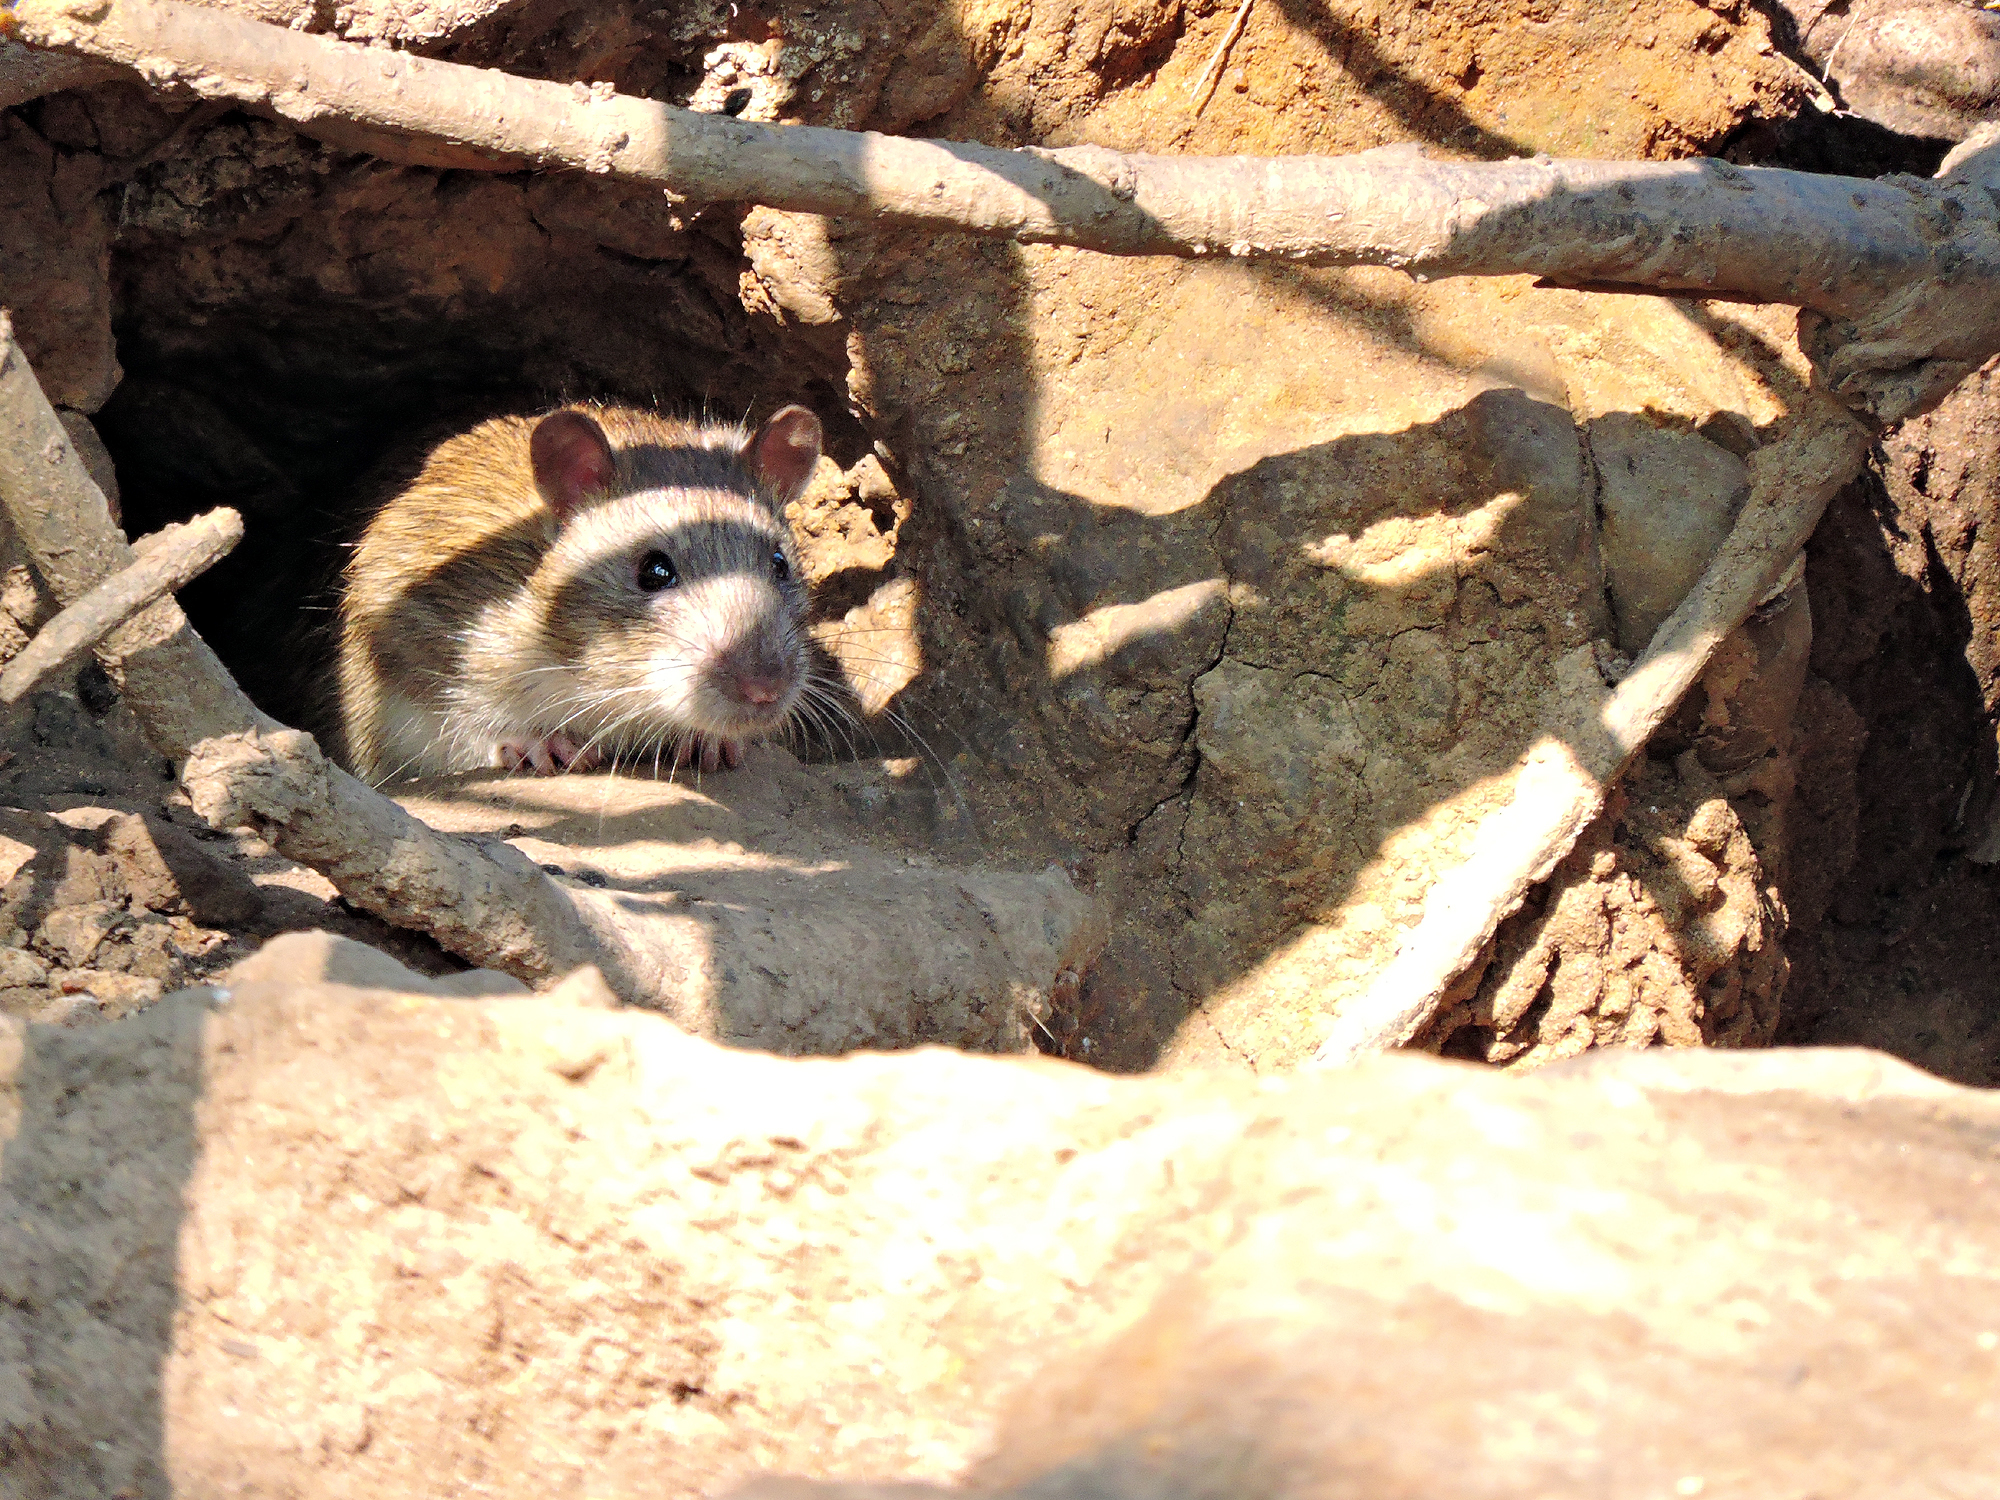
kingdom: Animalia
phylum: Chordata
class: Mammalia
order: Rodentia
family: Muridae
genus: Rattus
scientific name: Rattus norvegicus
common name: Brown rat
